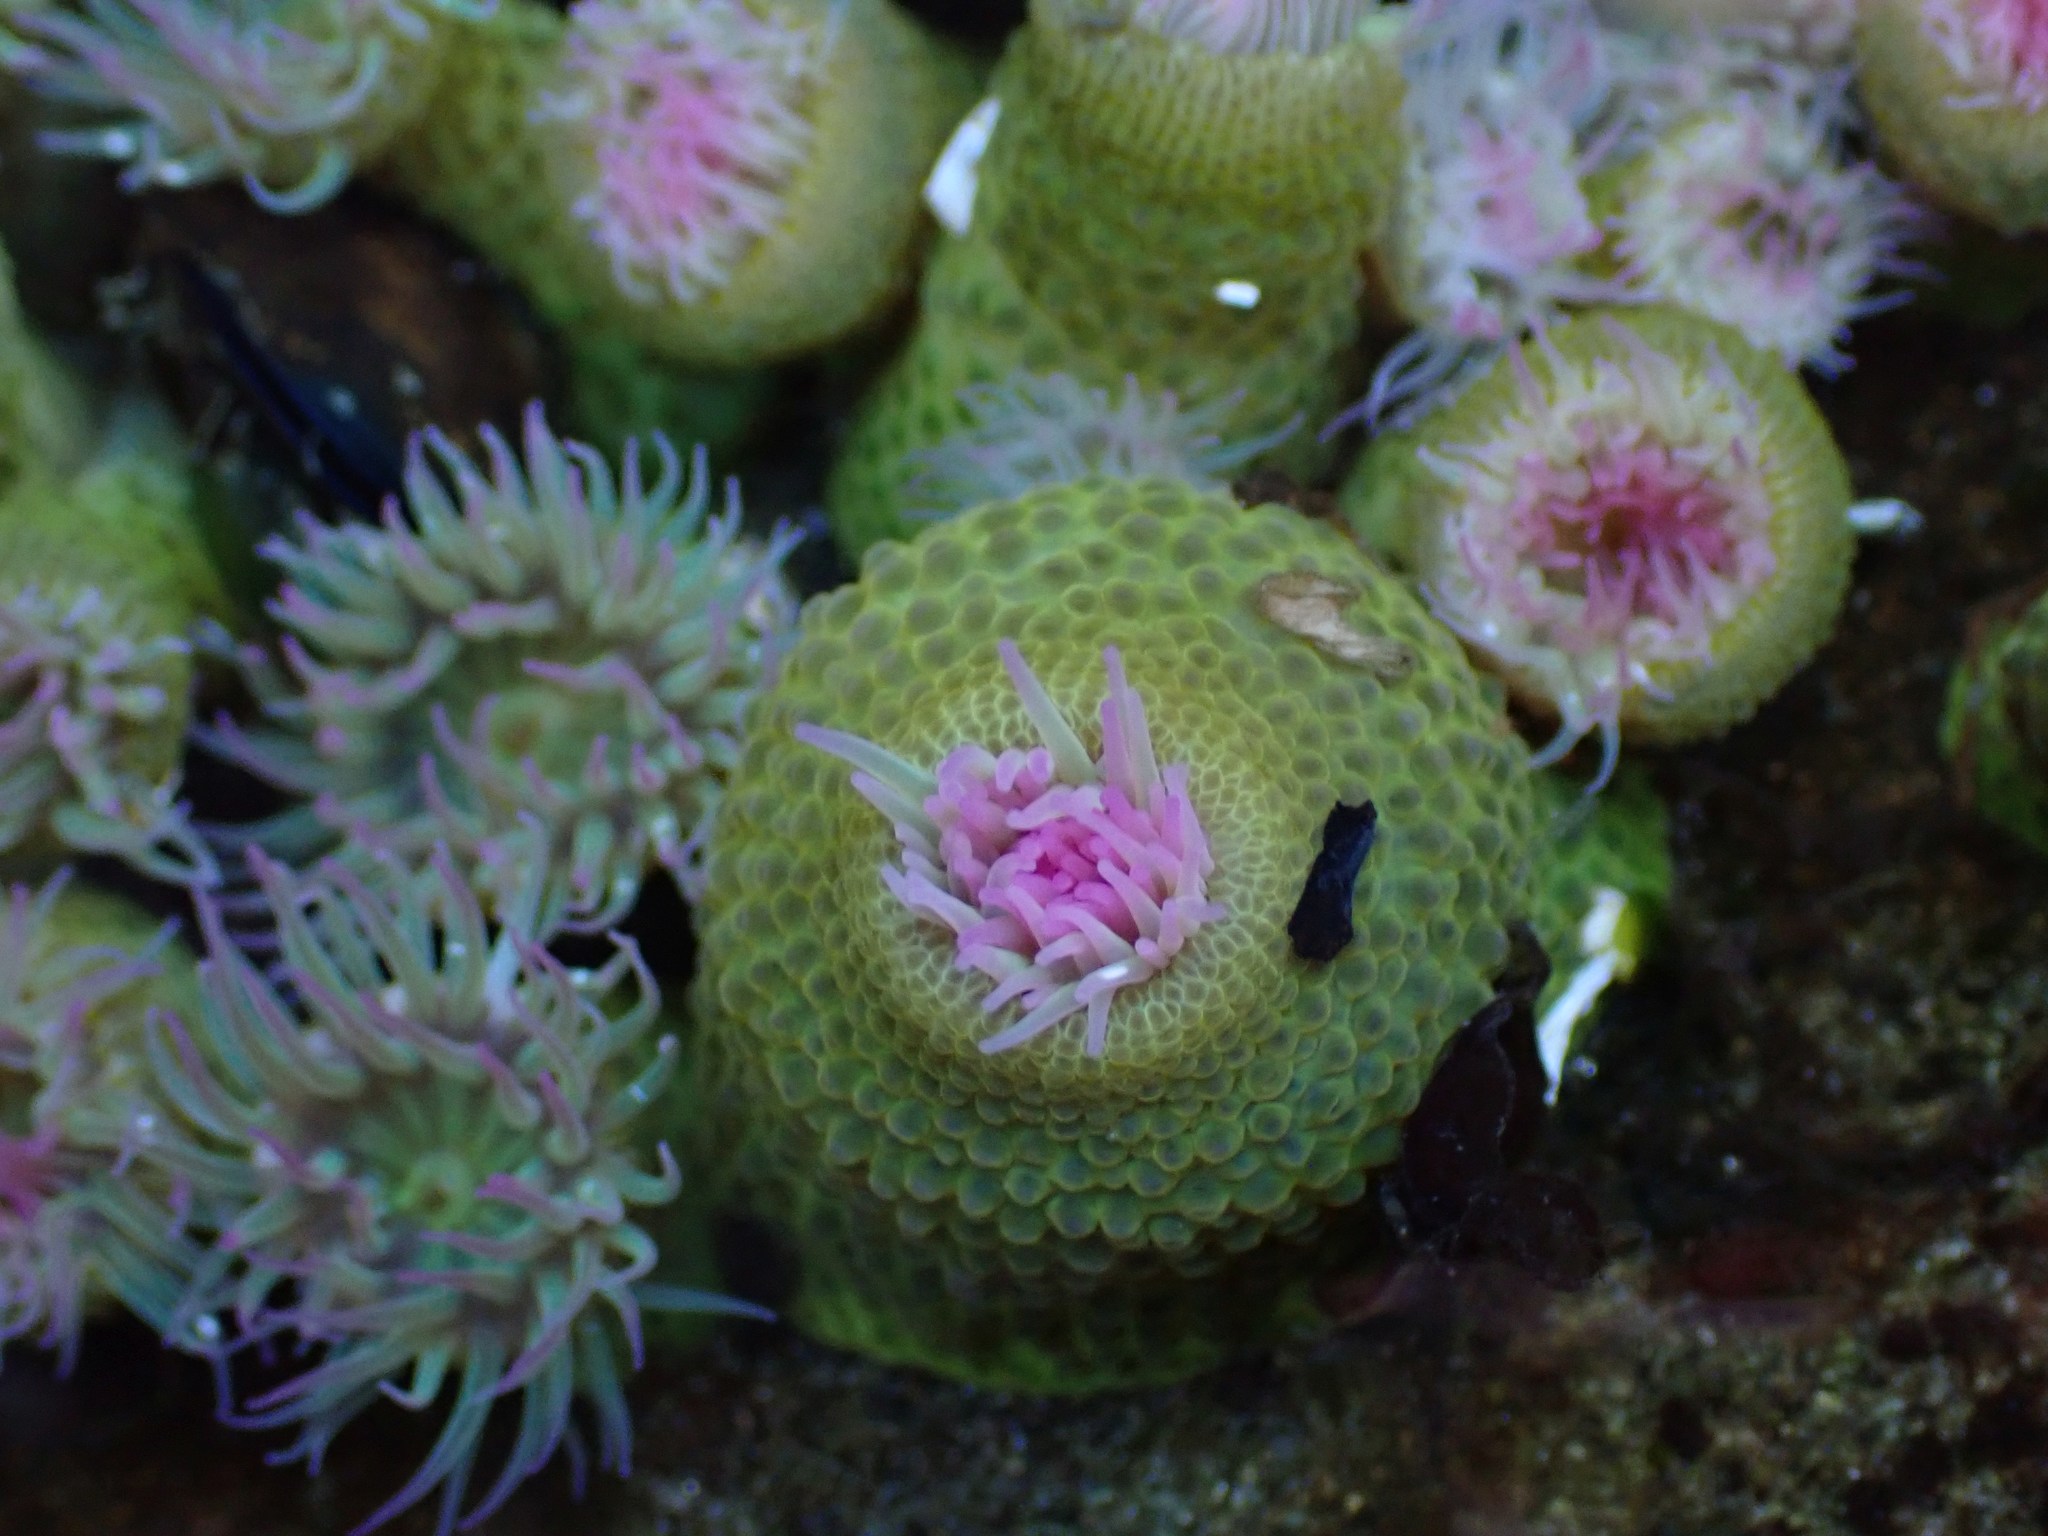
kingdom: Animalia
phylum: Cnidaria
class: Anthozoa
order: Actiniaria
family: Actiniidae
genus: Anthopleura
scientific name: Anthopleura elegantissima
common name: Clonal anemone
